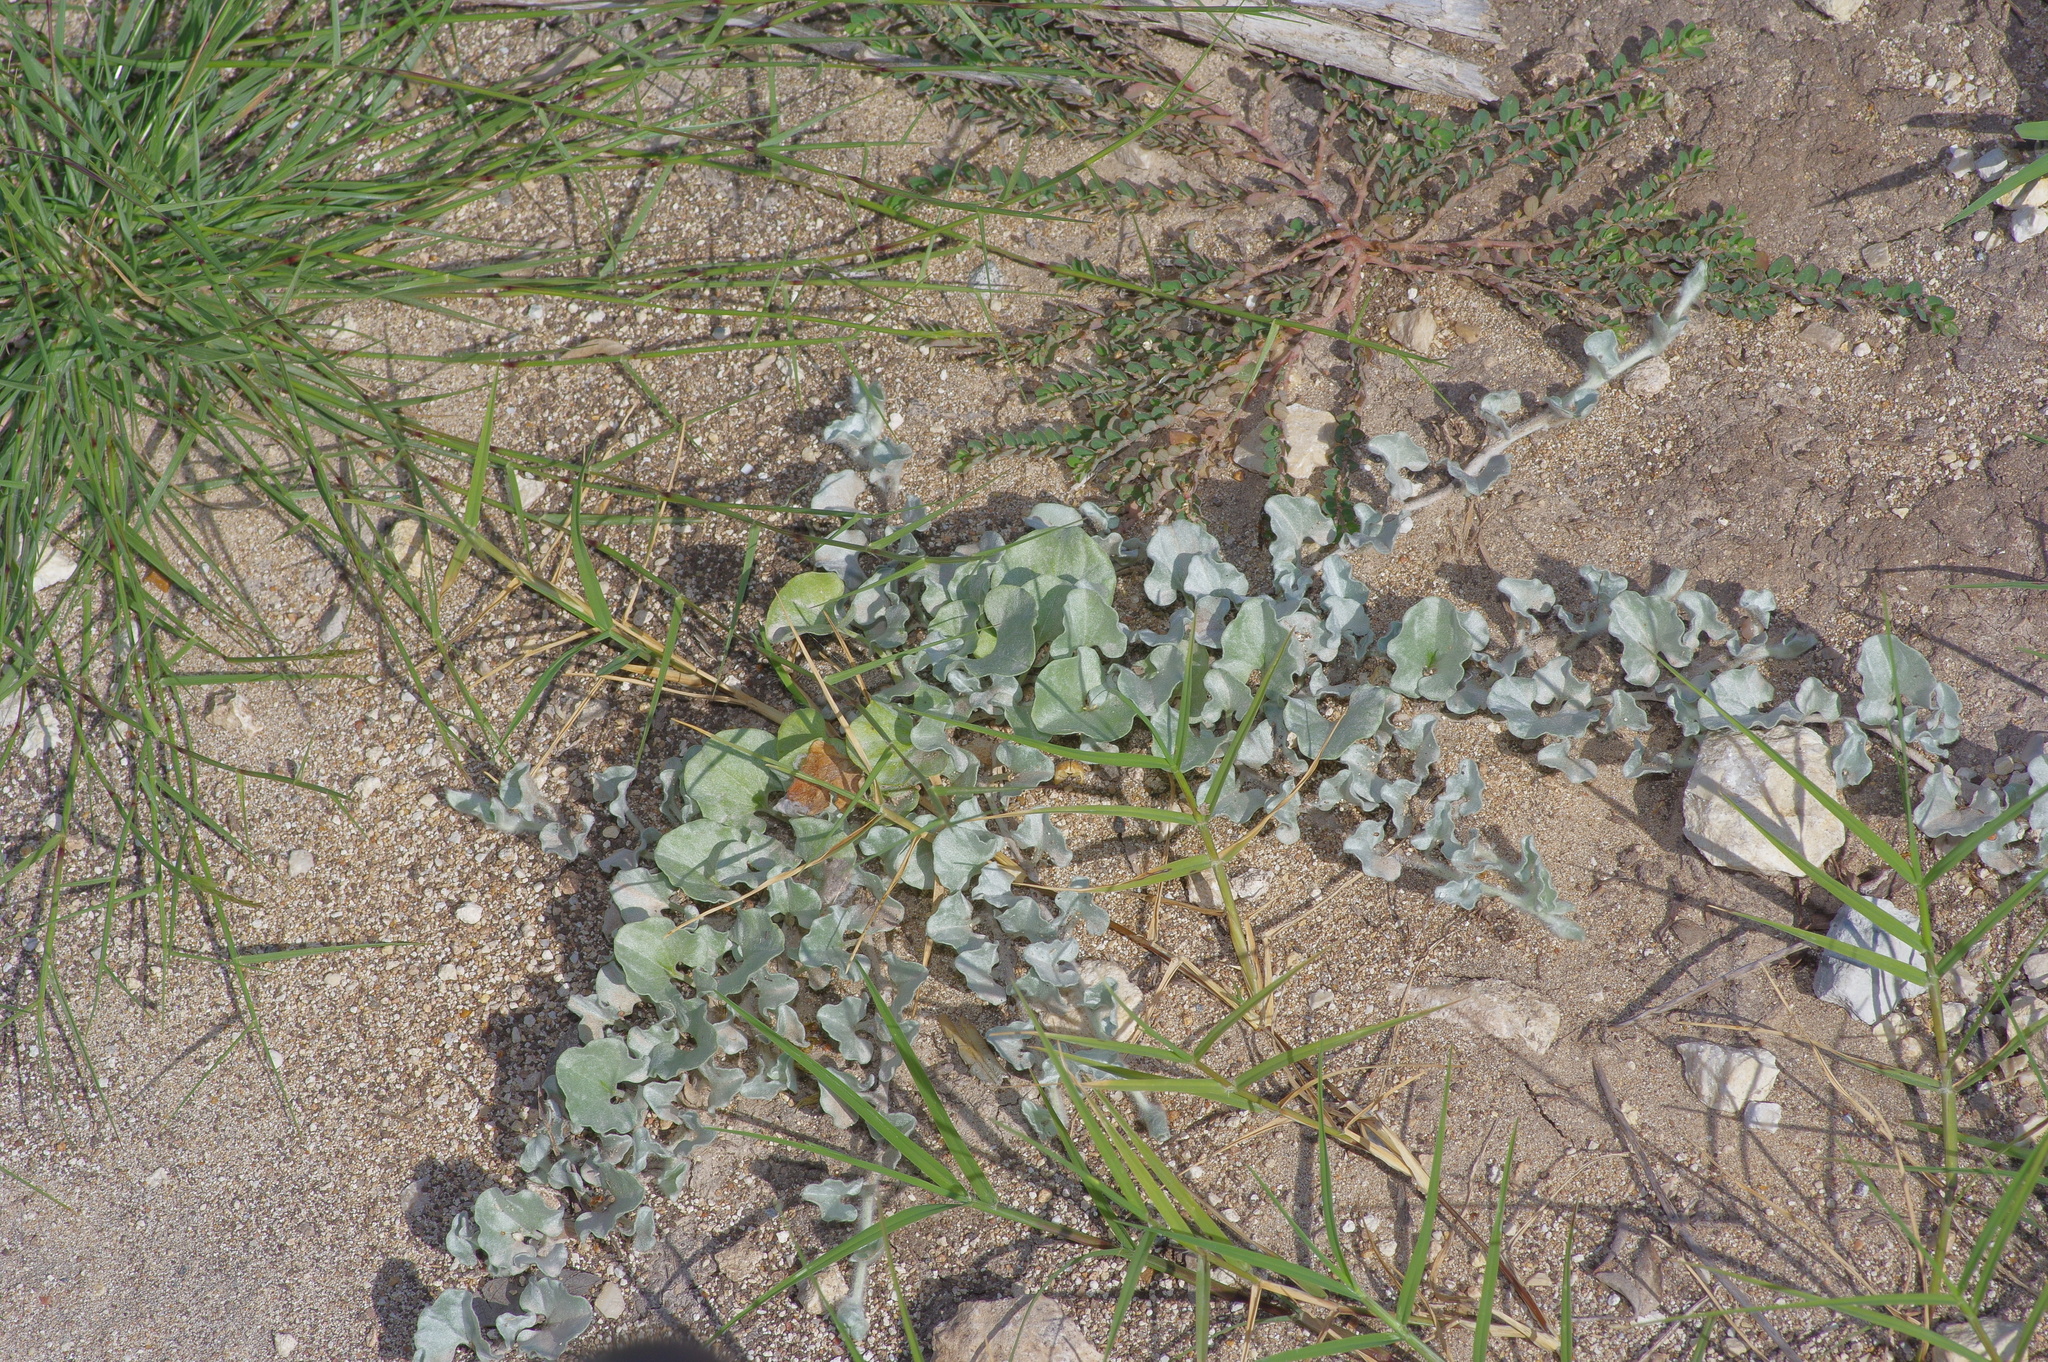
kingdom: Plantae
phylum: Tracheophyta
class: Magnoliopsida
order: Solanales
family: Convolvulaceae
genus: Dichondra
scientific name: Dichondra argentea
